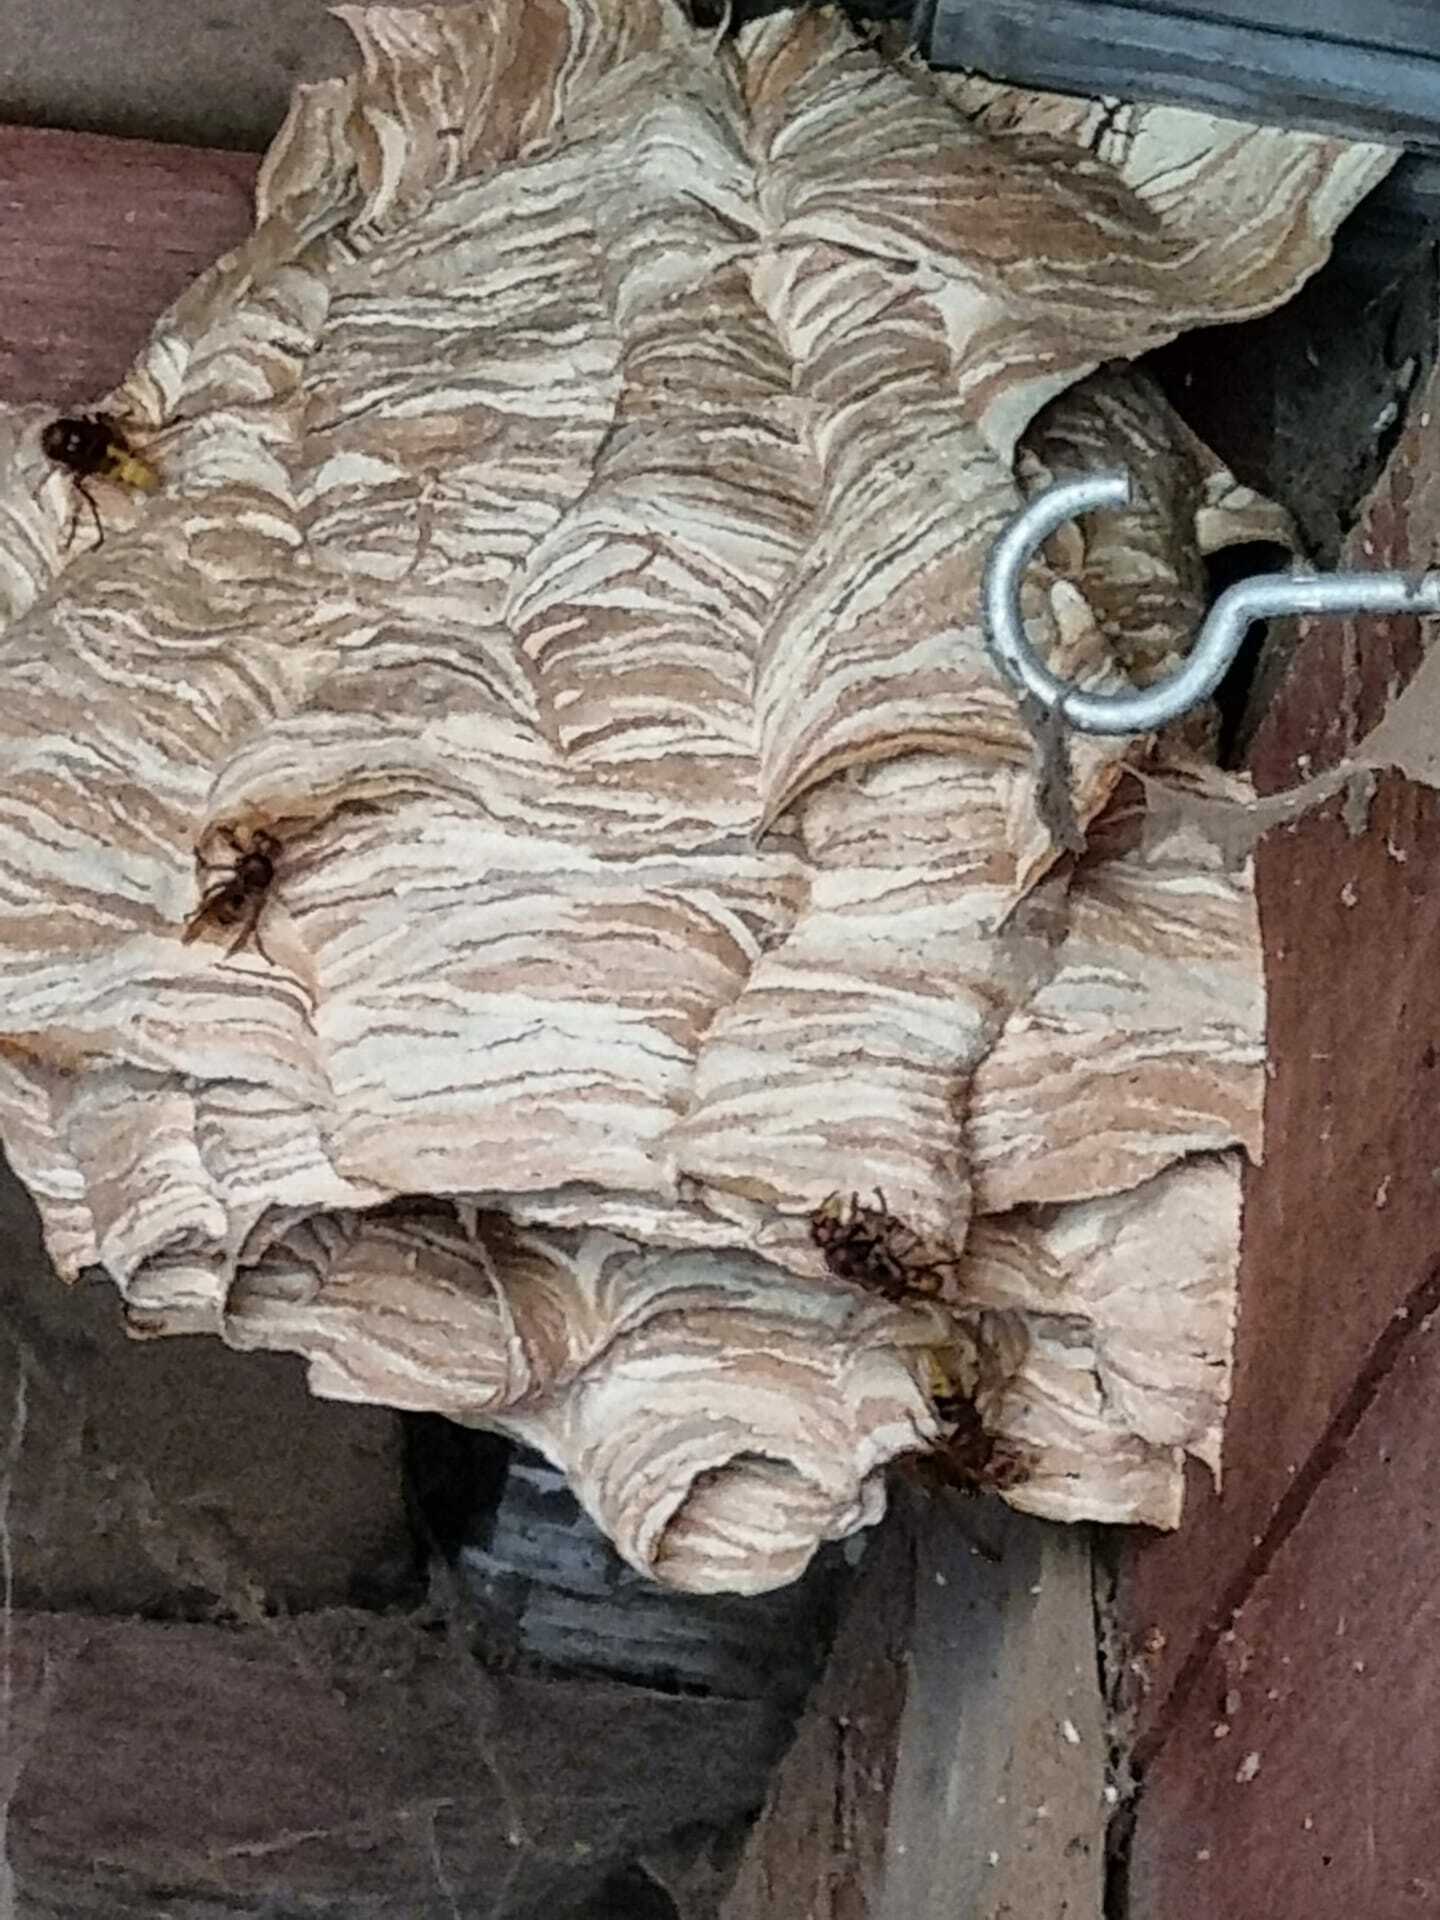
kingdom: Animalia
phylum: Arthropoda
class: Insecta
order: Hymenoptera
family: Vespidae
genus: Vespa
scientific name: Vespa crabro
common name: Hornet
